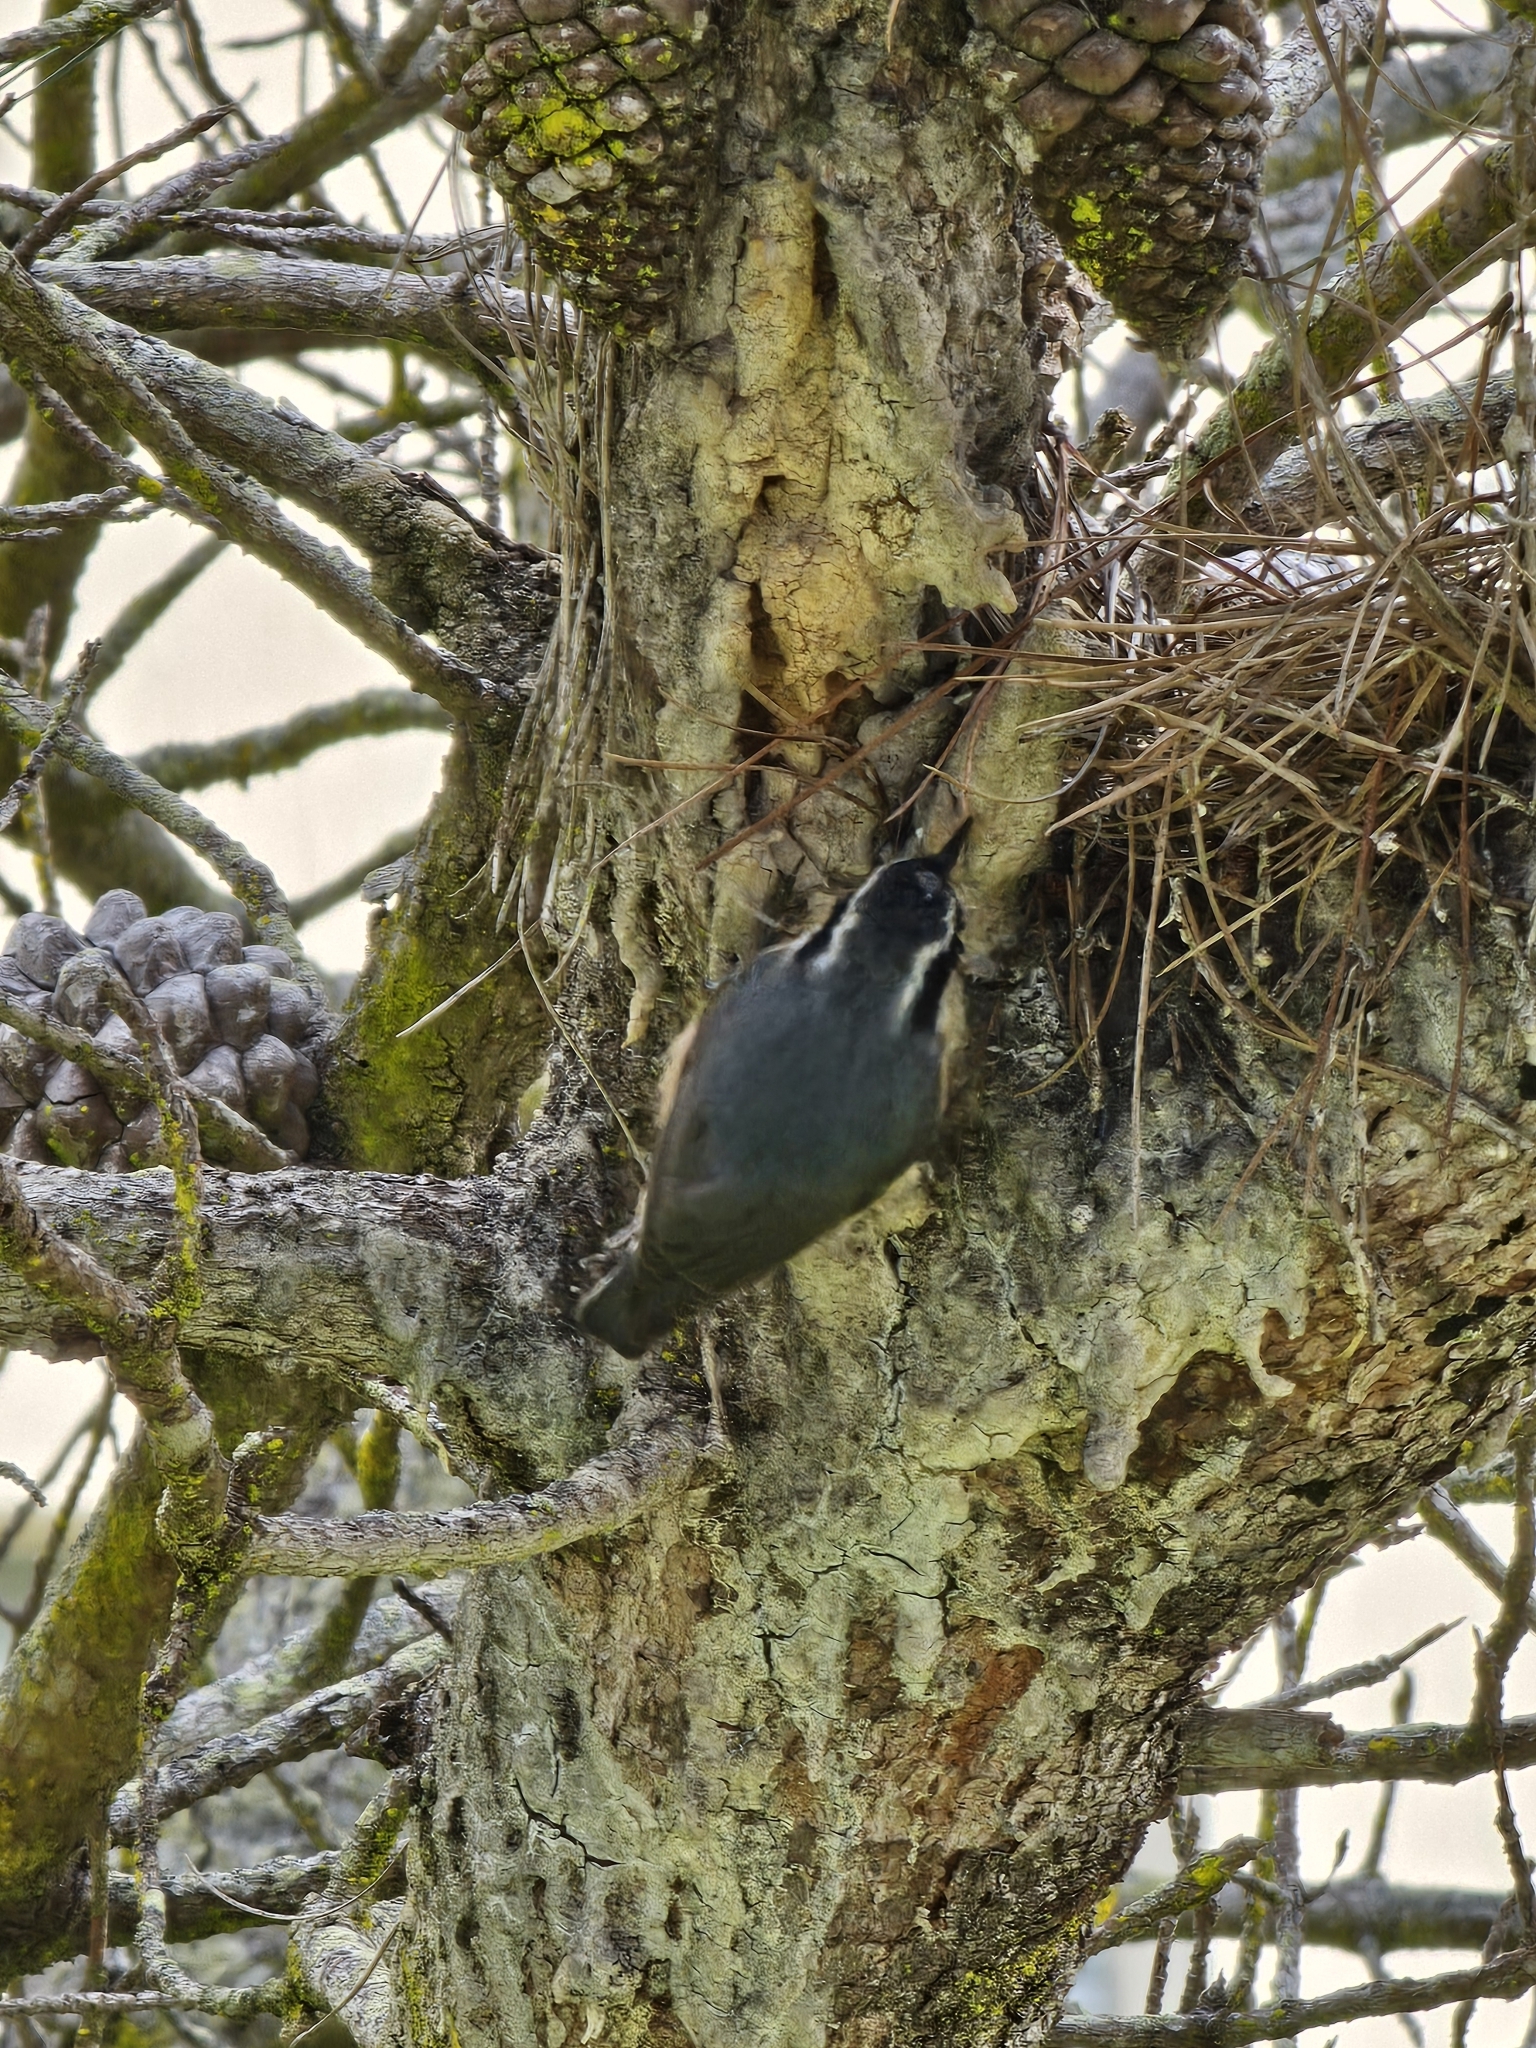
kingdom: Animalia
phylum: Chordata
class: Aves
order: Passeriformes
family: Sittidae
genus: Sitta
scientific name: Sitta canadensis
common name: Red-breasted nuthatch
